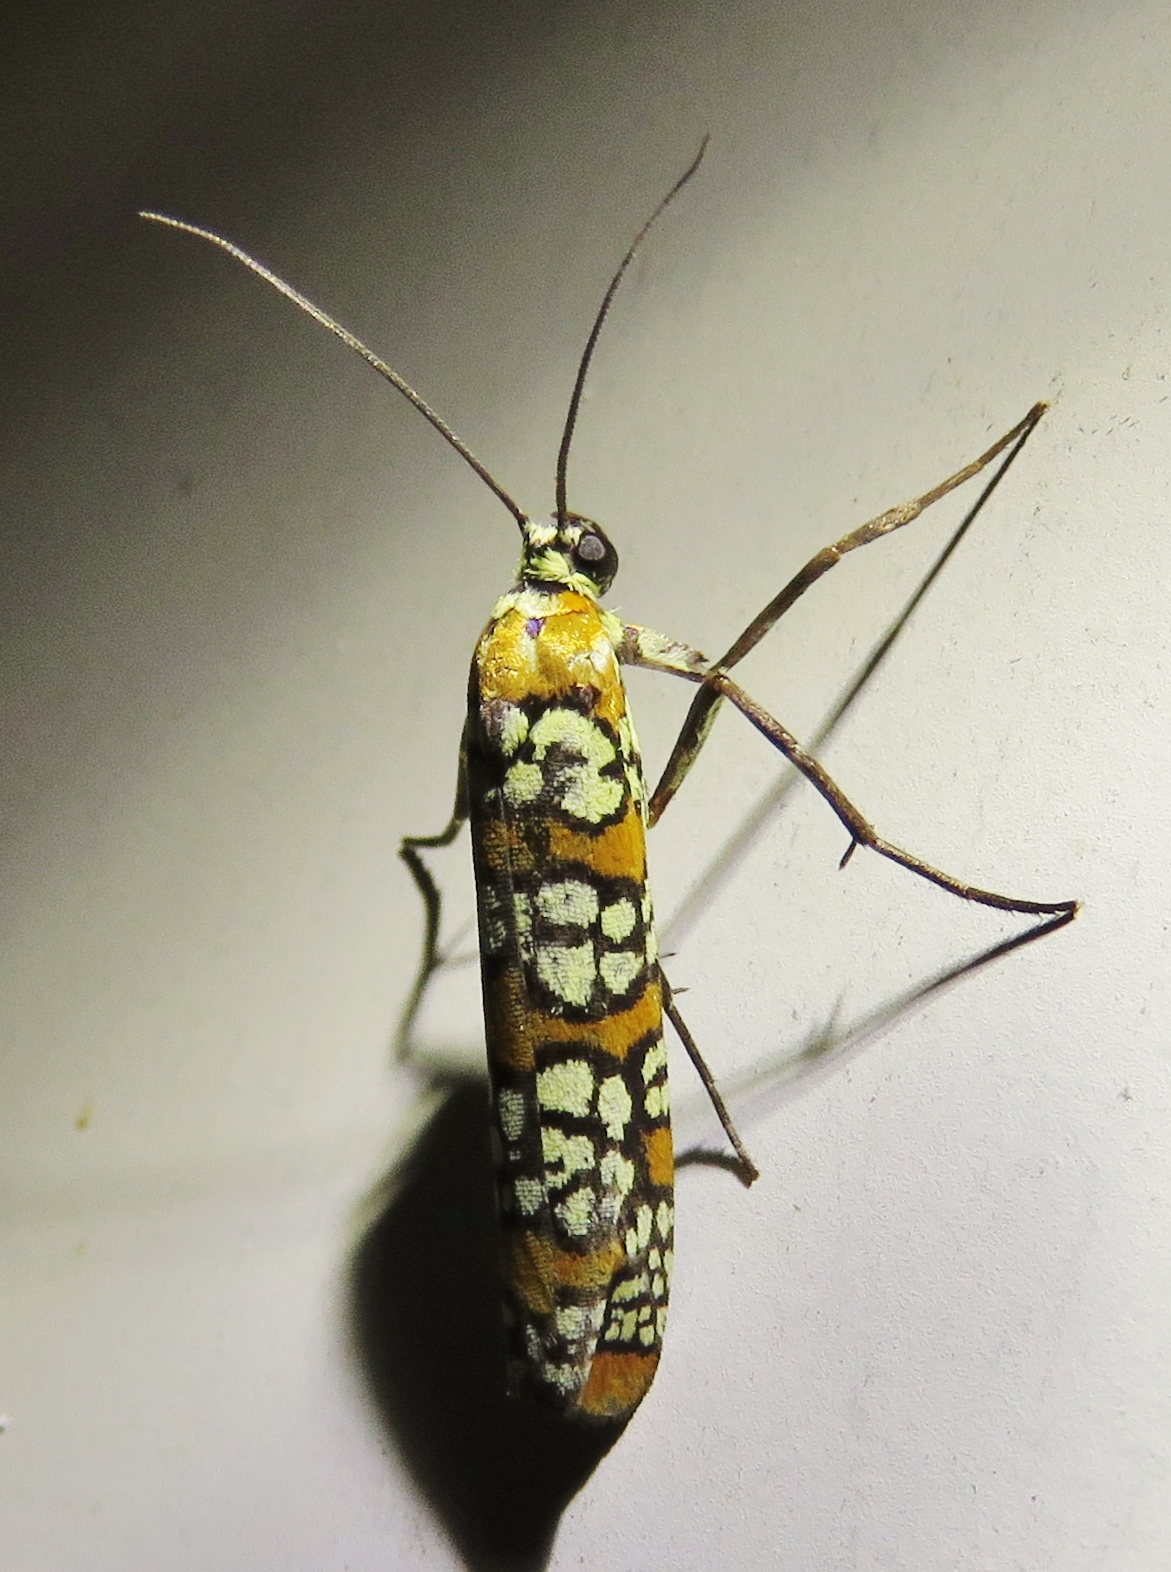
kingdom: Animalia
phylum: Arthropoda
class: Insecta
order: Lepidoptera
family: Attevidae
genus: Atteva
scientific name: Atteva punctella
